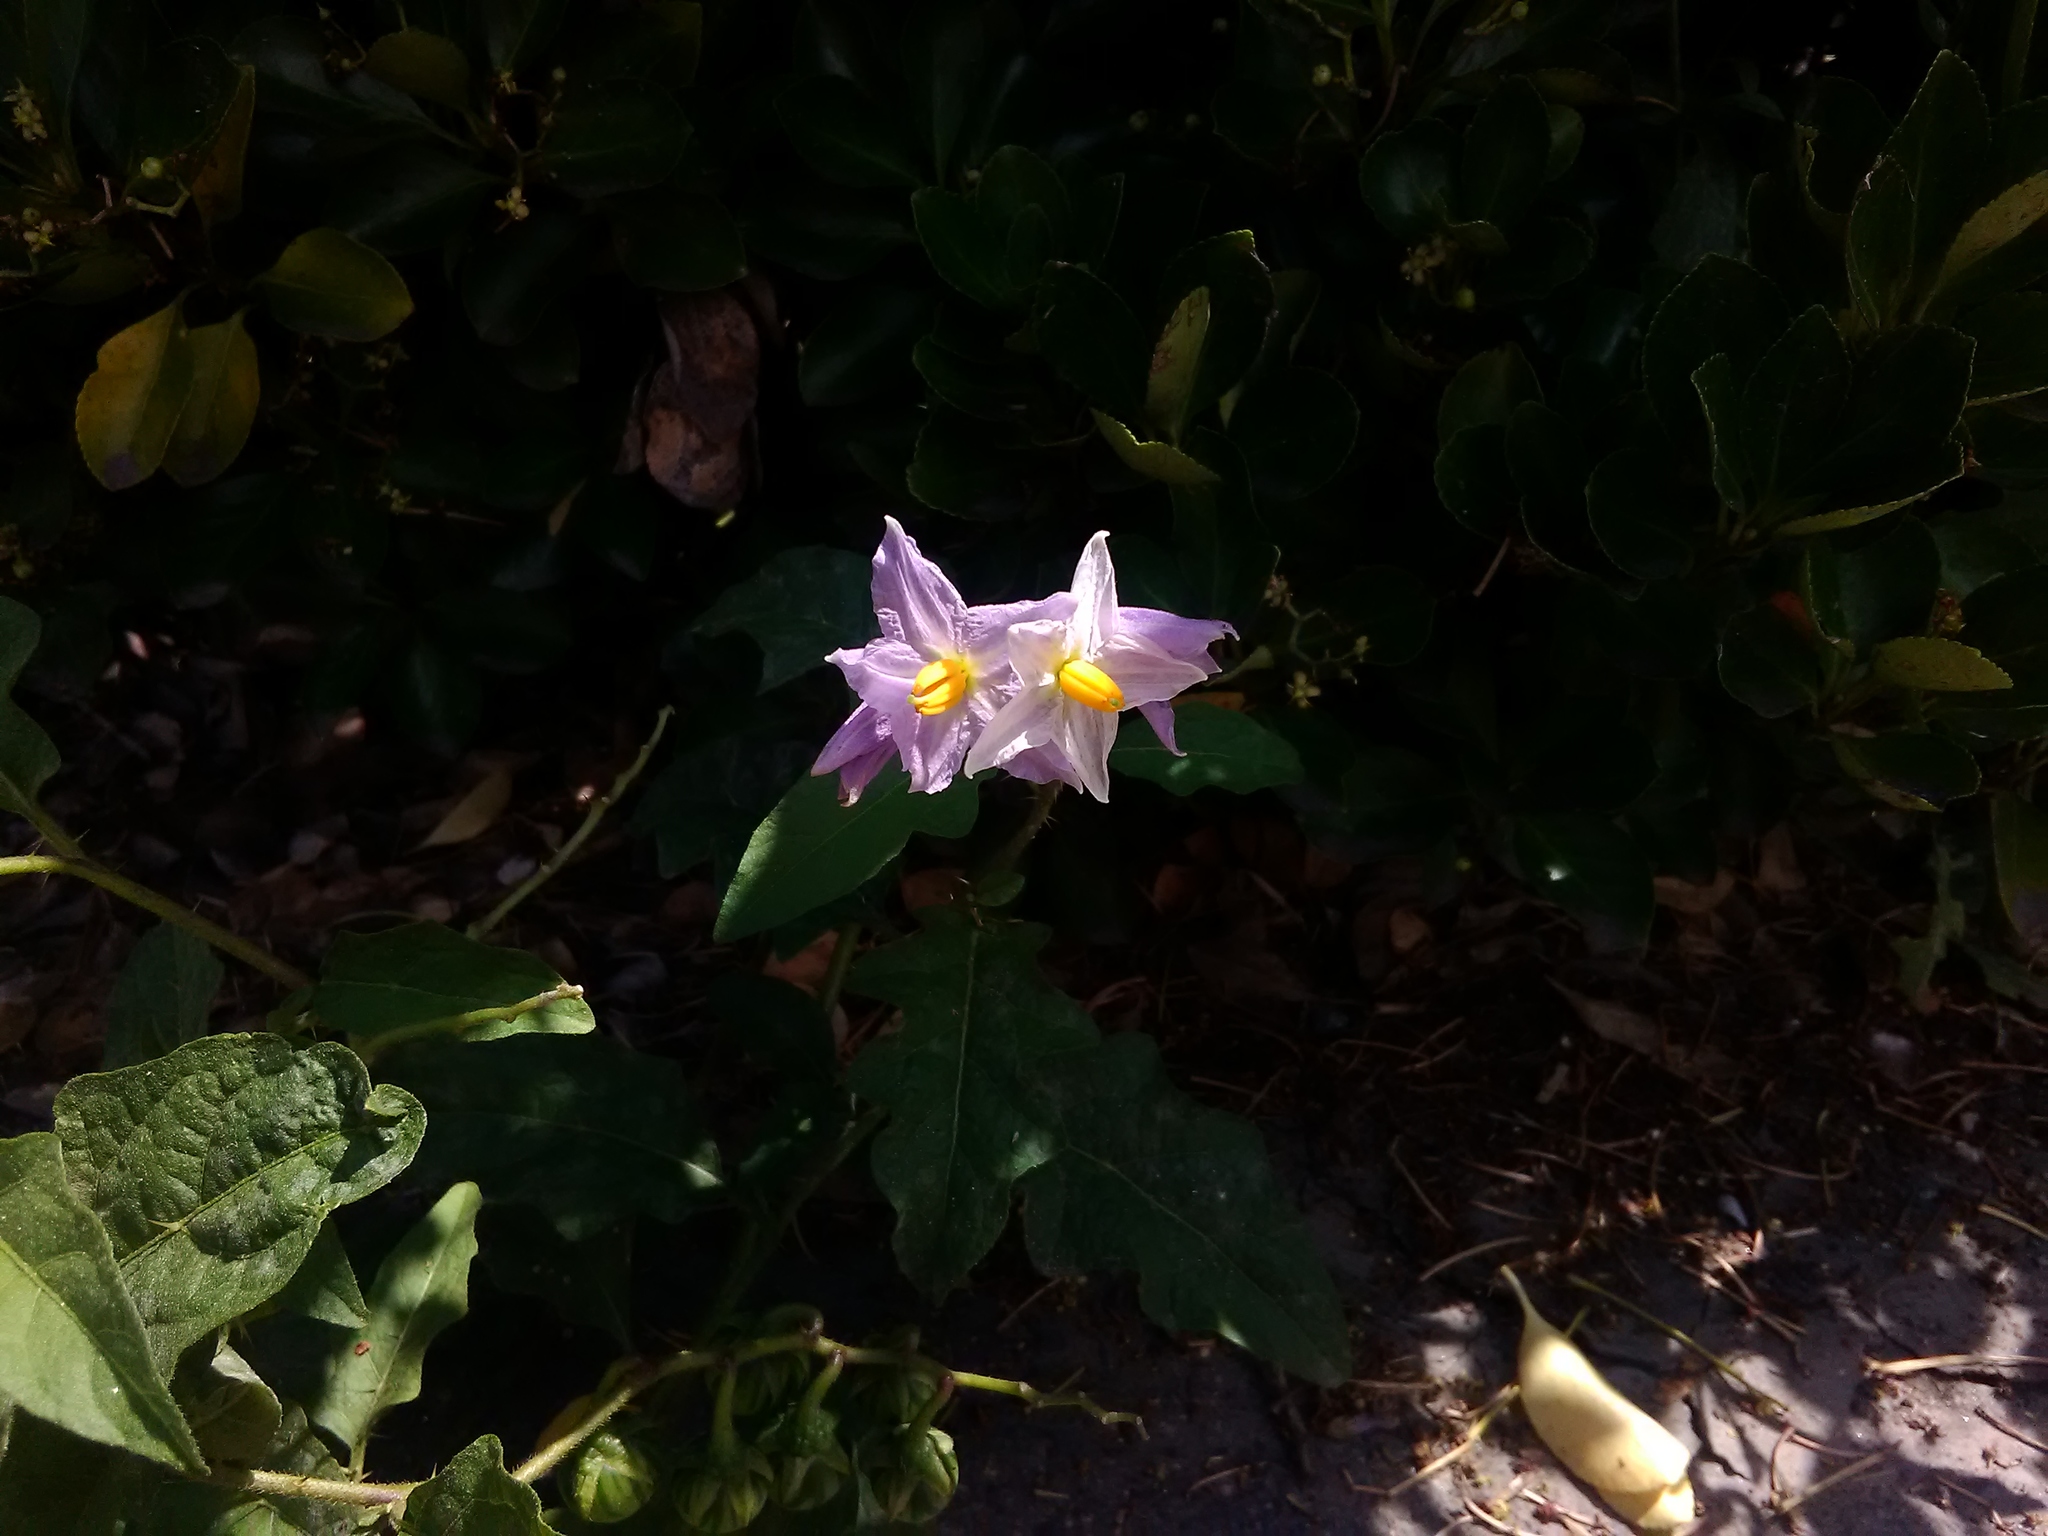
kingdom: Plantae
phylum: Tracheophyta
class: Magnoliopsida
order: Solanales
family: Solanaceae
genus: Solanum
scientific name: Solanum carolinense
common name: Horse-nettle
